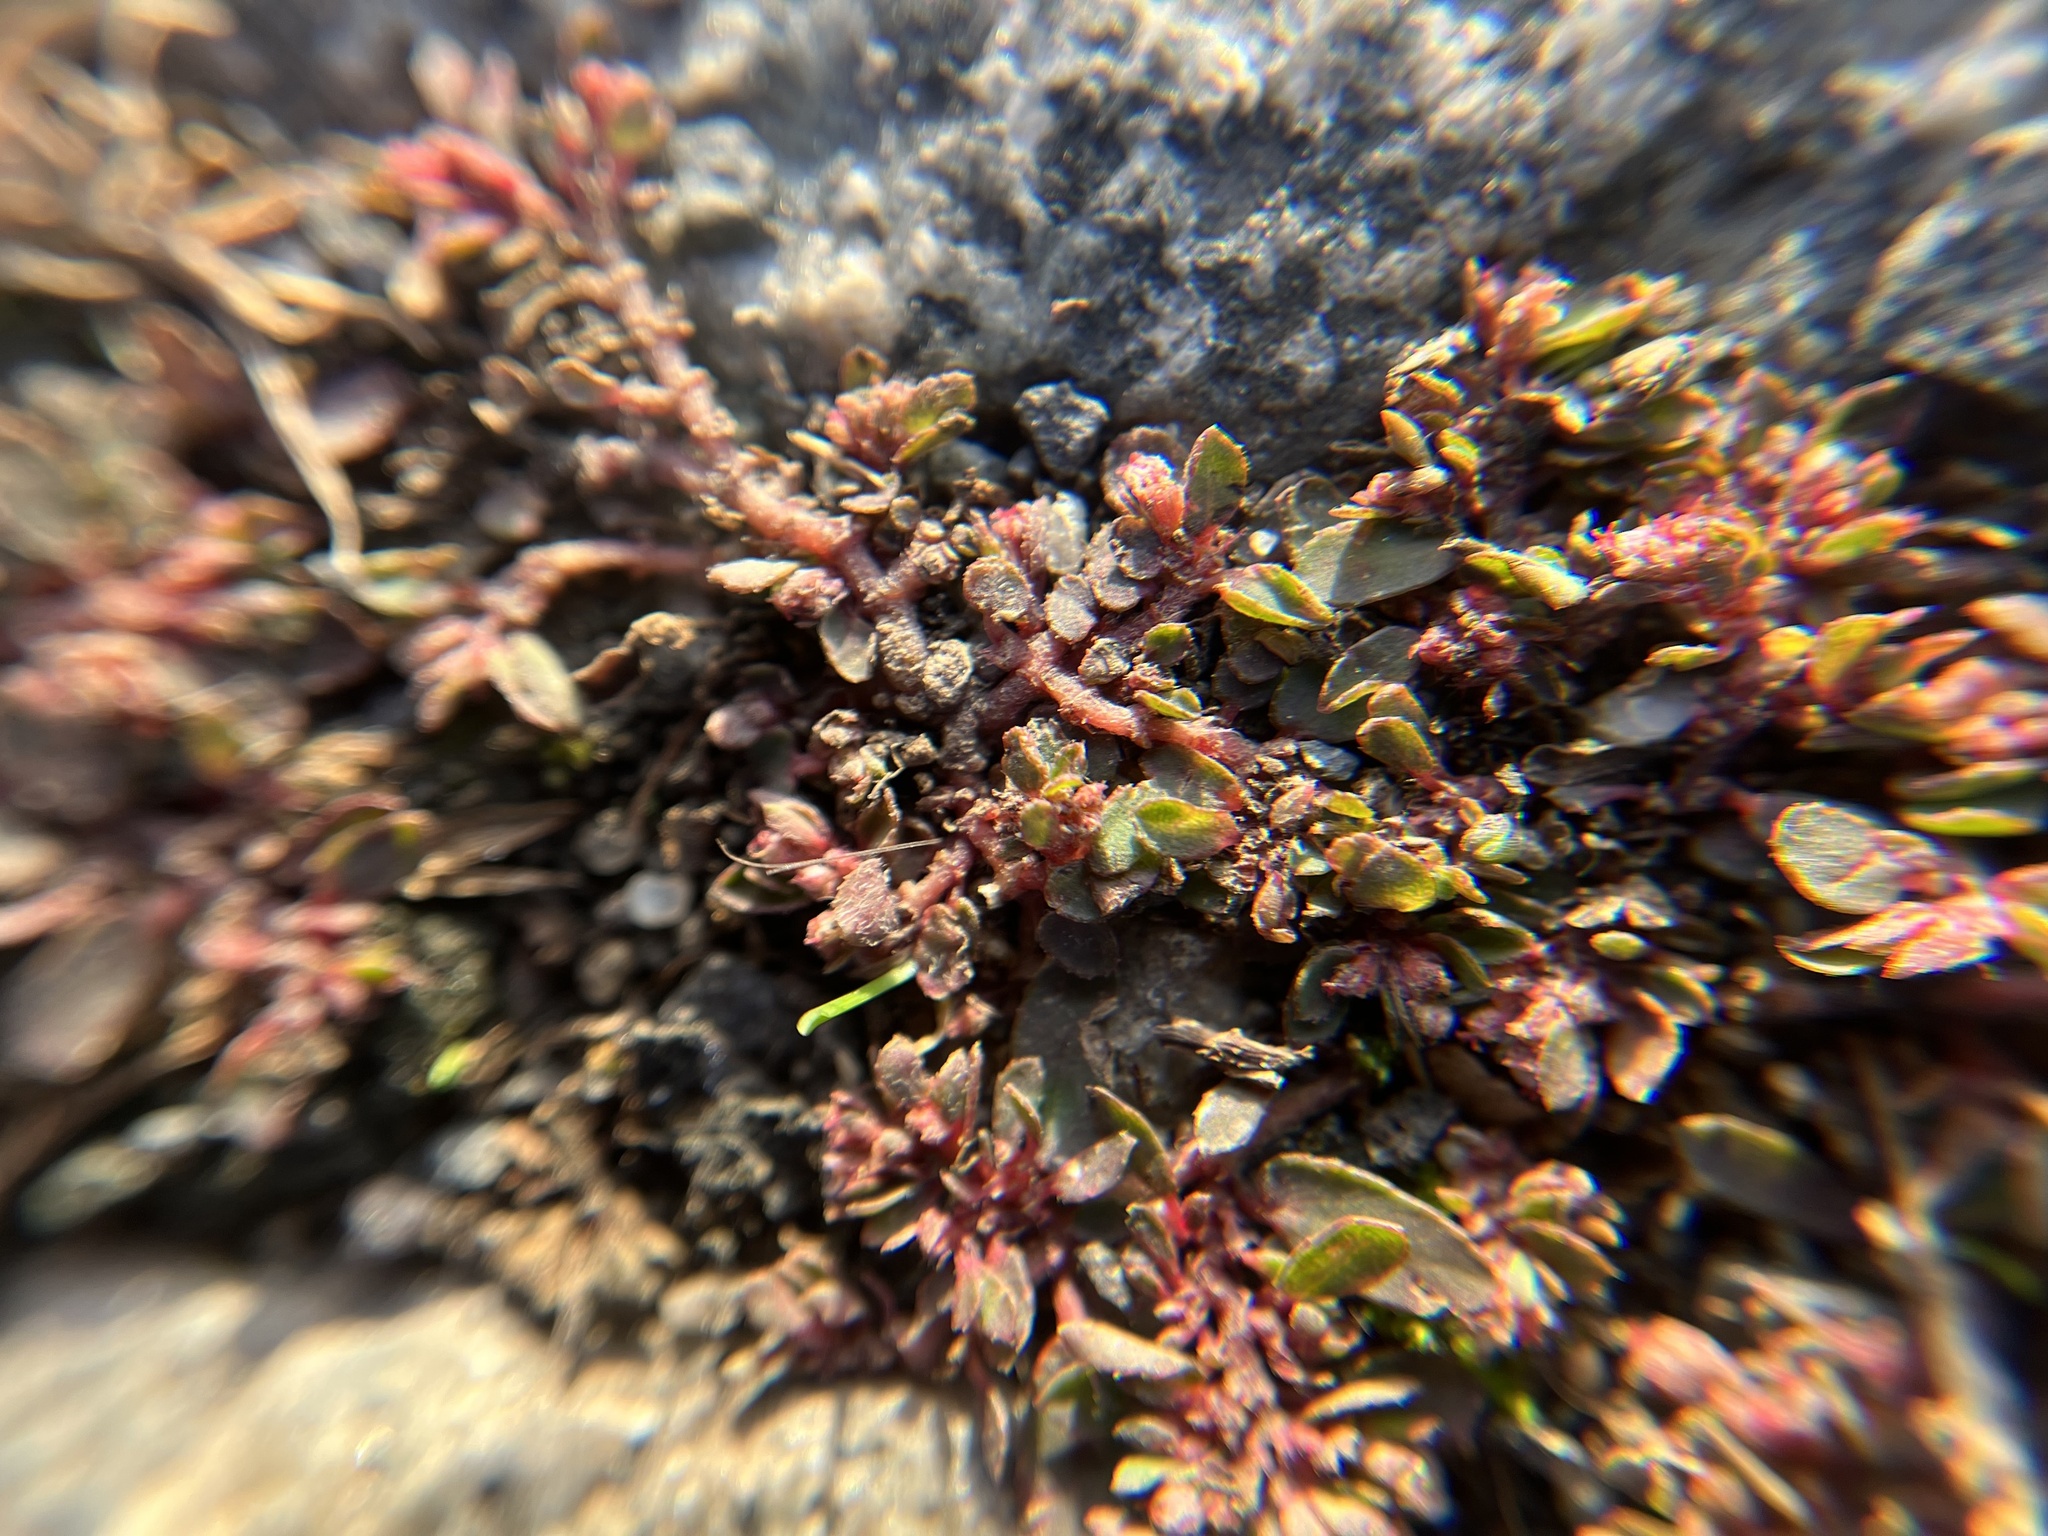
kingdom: Plantae
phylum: Tracheophyta
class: Magnoliopsida
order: Malpighiales
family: Euphorbiaceae
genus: Euphorbia
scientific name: Euphorbia maculata
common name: Spotted spurge
